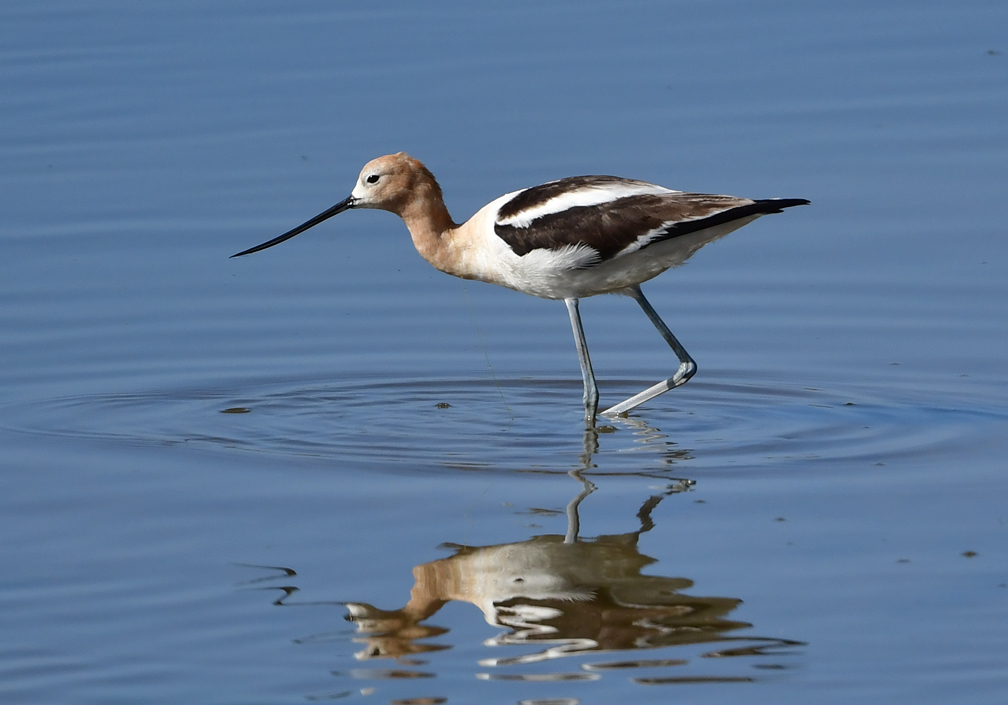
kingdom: Animalia
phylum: Chordata
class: Aves
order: Charadriiformes
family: Recurvirostridae
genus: Recurvirostra
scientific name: Recurvirostra americana
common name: American avocet
